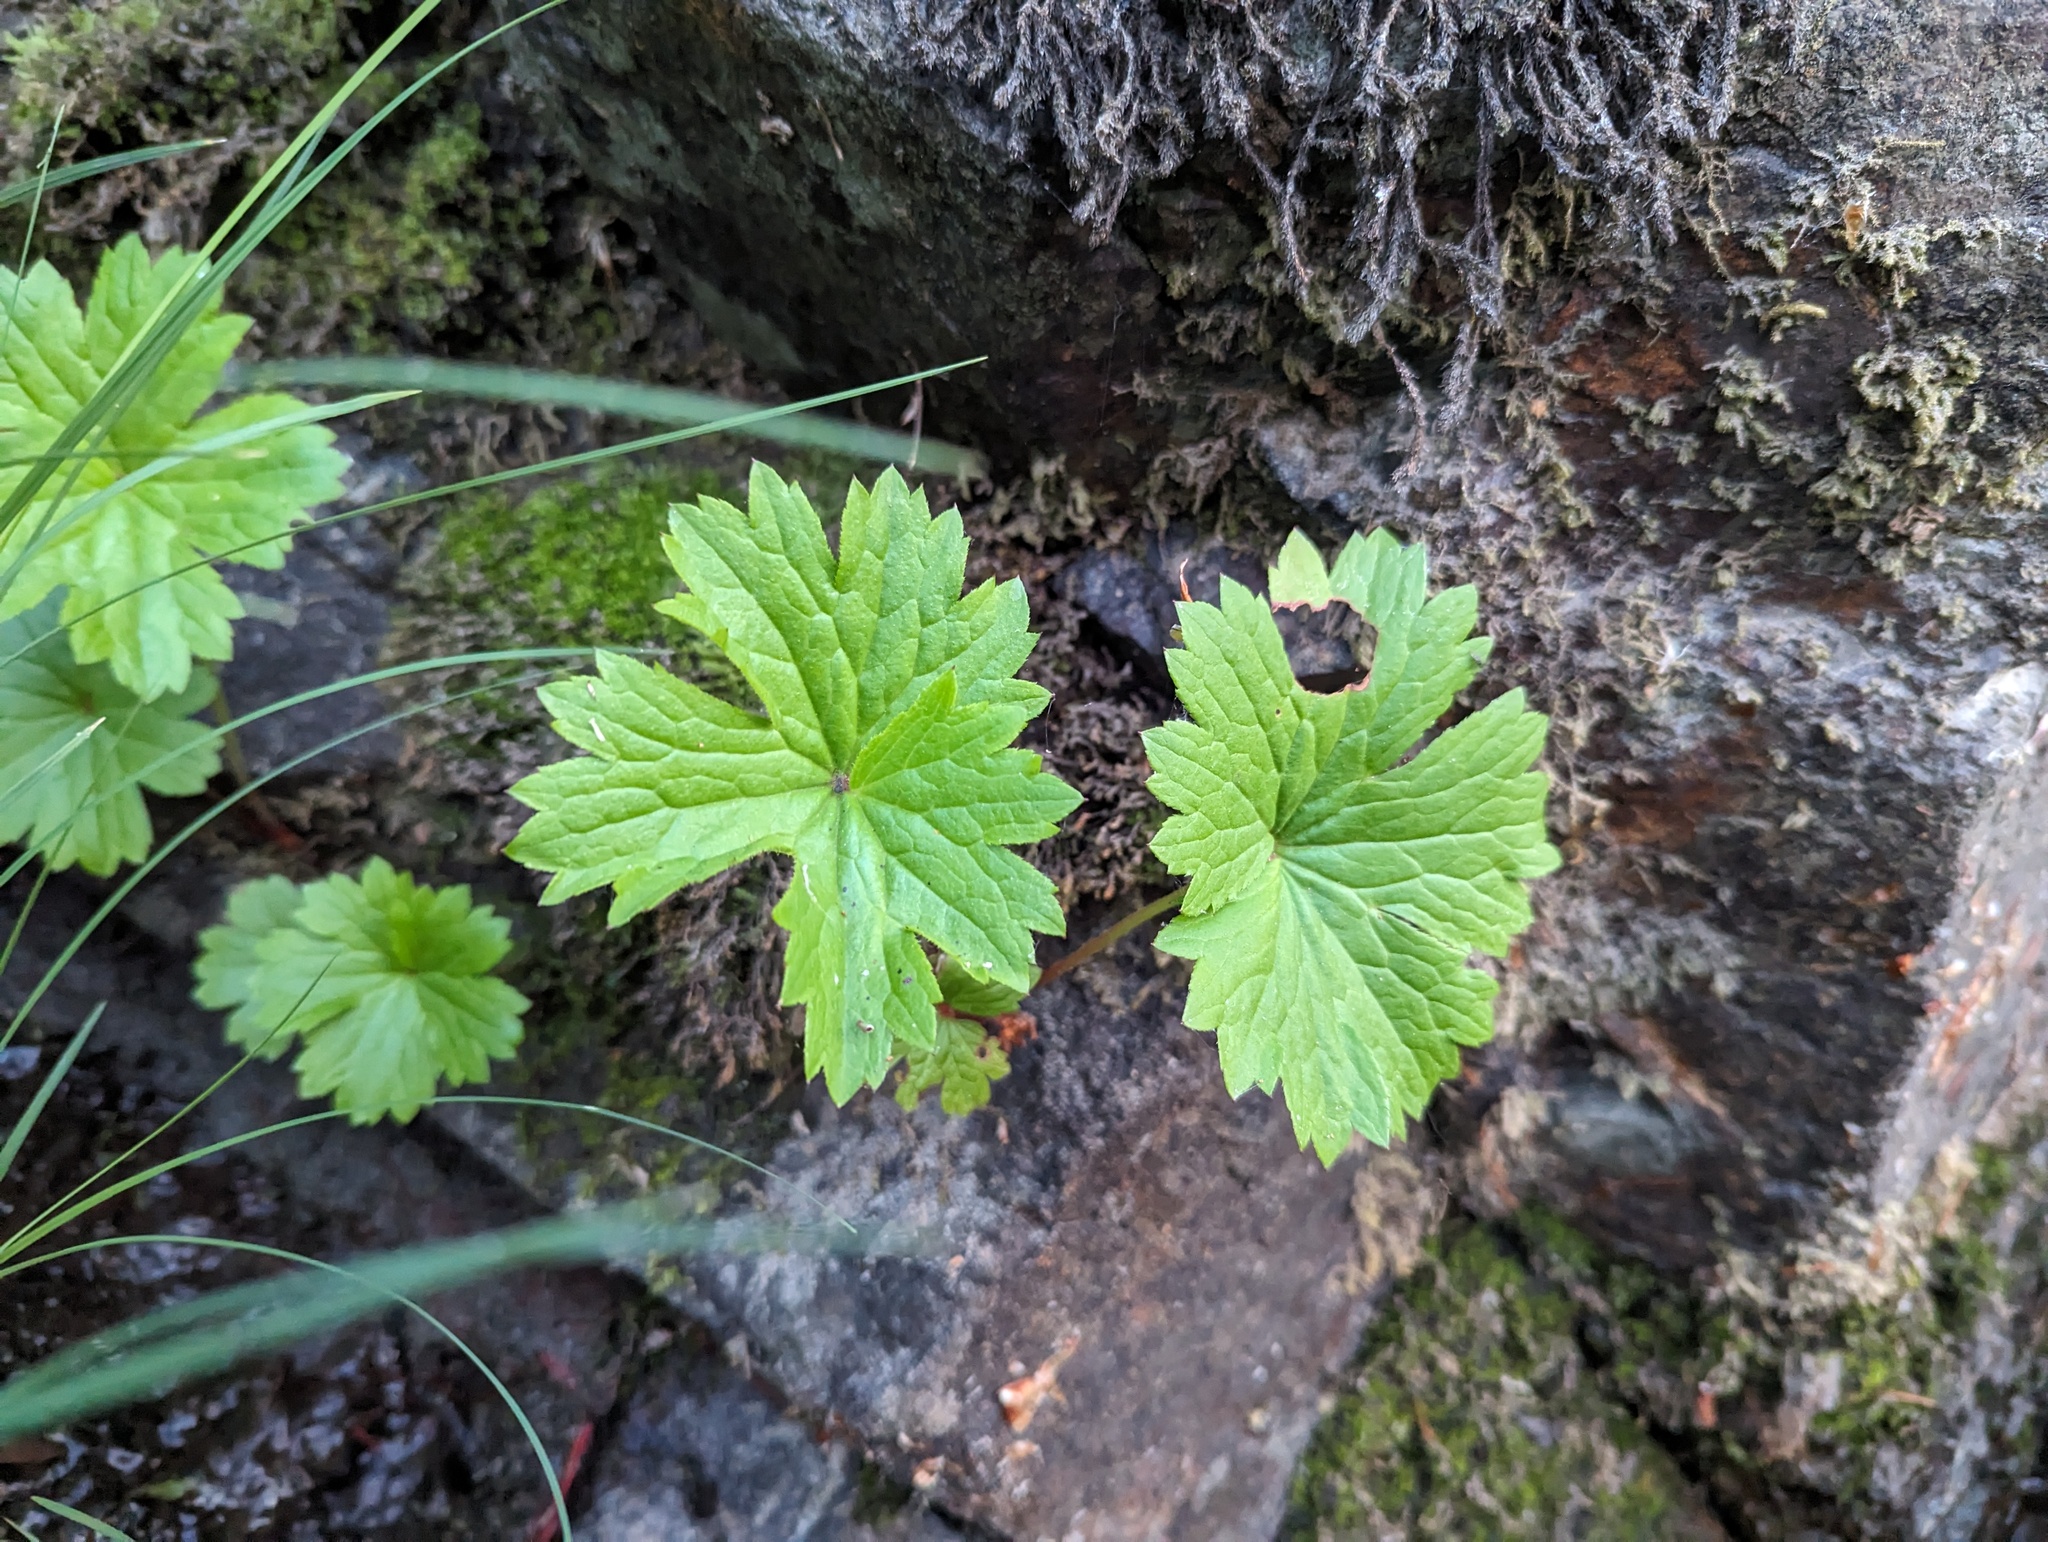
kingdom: Plantae
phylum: Tracheophyta
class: Magnoliopsida
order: Saxifragales
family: Saxifragaceae
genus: Boykinia
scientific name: Boykinia occidentalis
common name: Coast boykinia
